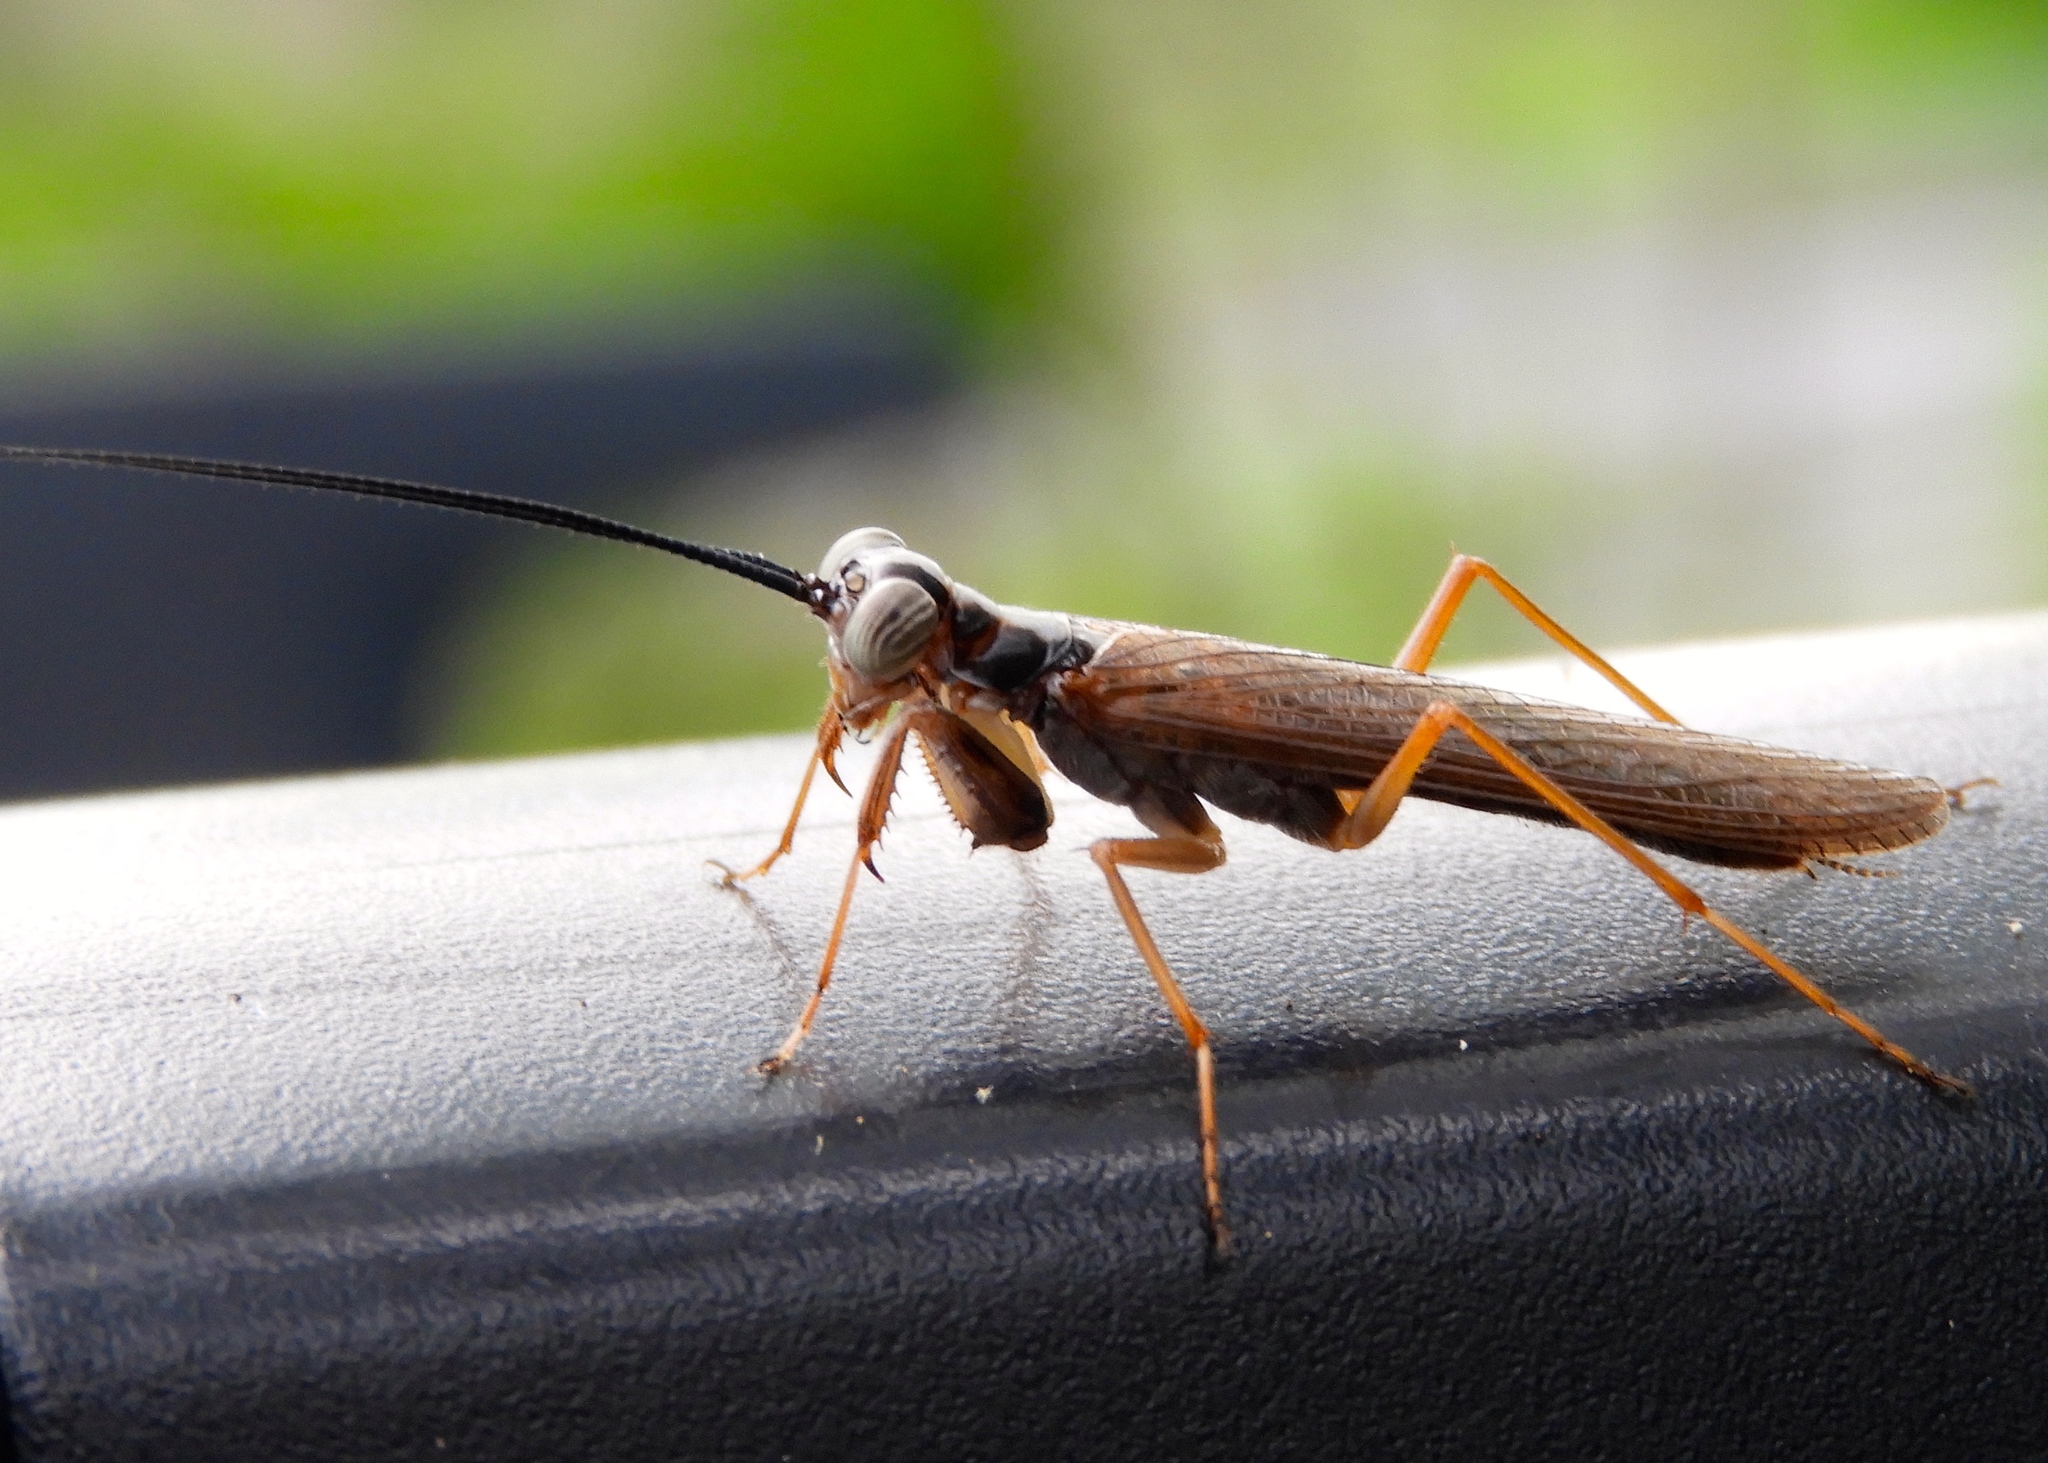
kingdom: Animalia
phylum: Arthropoda
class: Insecta
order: Mantodea
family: Mantoididae
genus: Mantoida
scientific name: Mantoida maya
